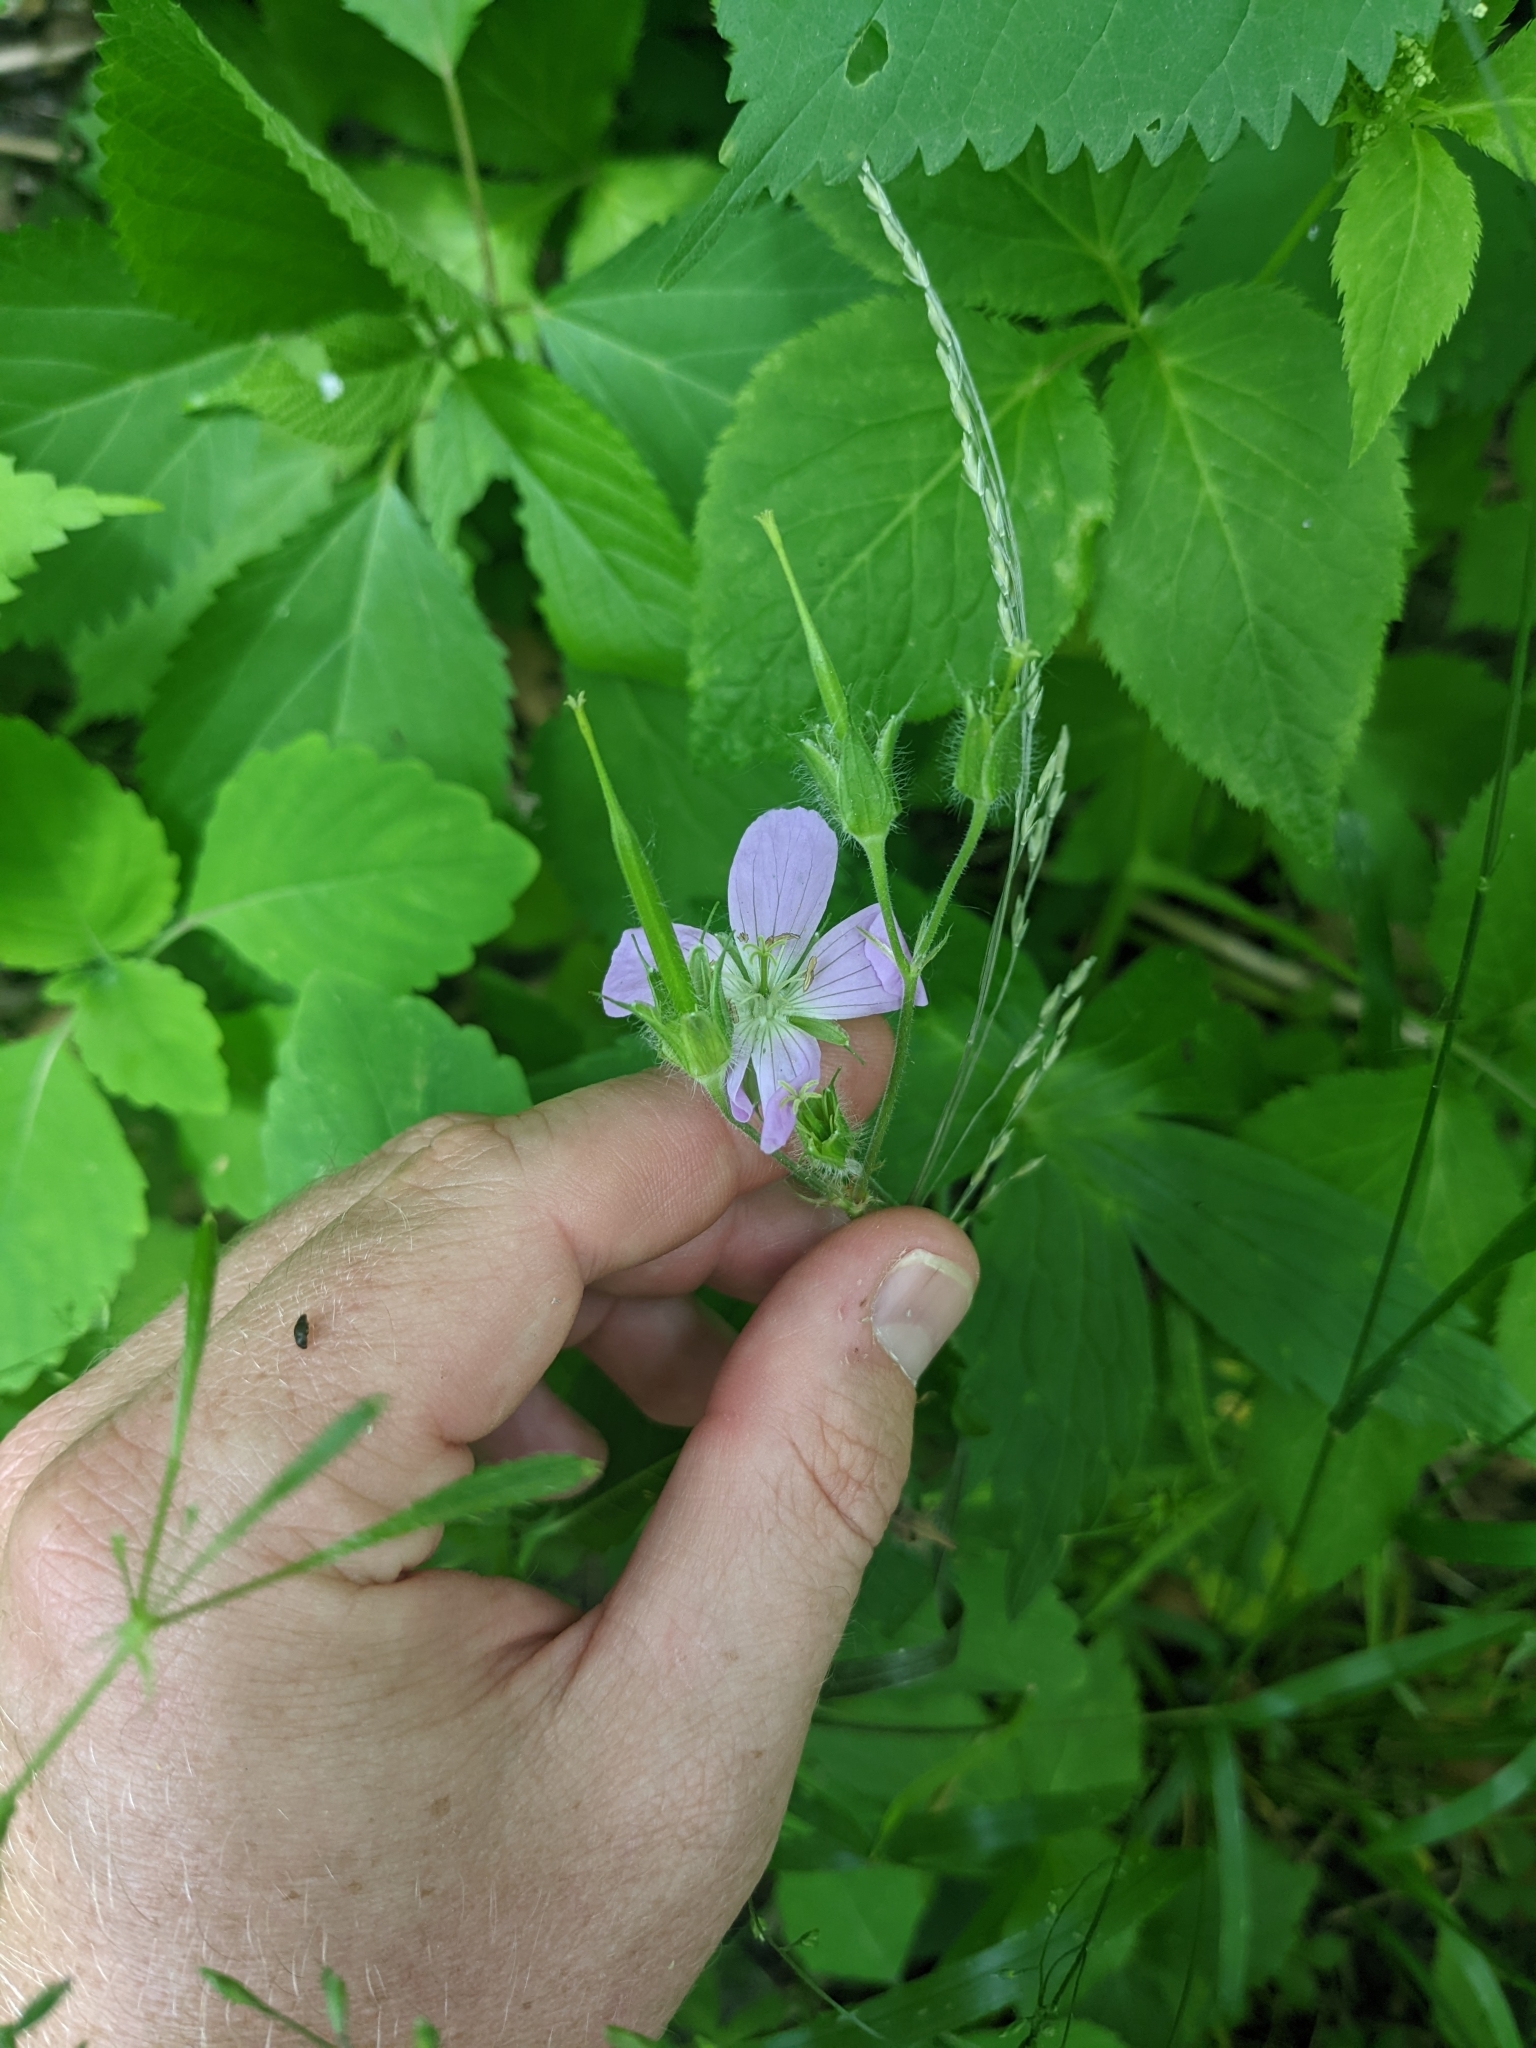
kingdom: Plantae
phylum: Tracheophyta
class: Magnoliopsida
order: Geraniales
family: Geraniaceae
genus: Geranium
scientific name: Geranium maculatum
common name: Spotted geranium
